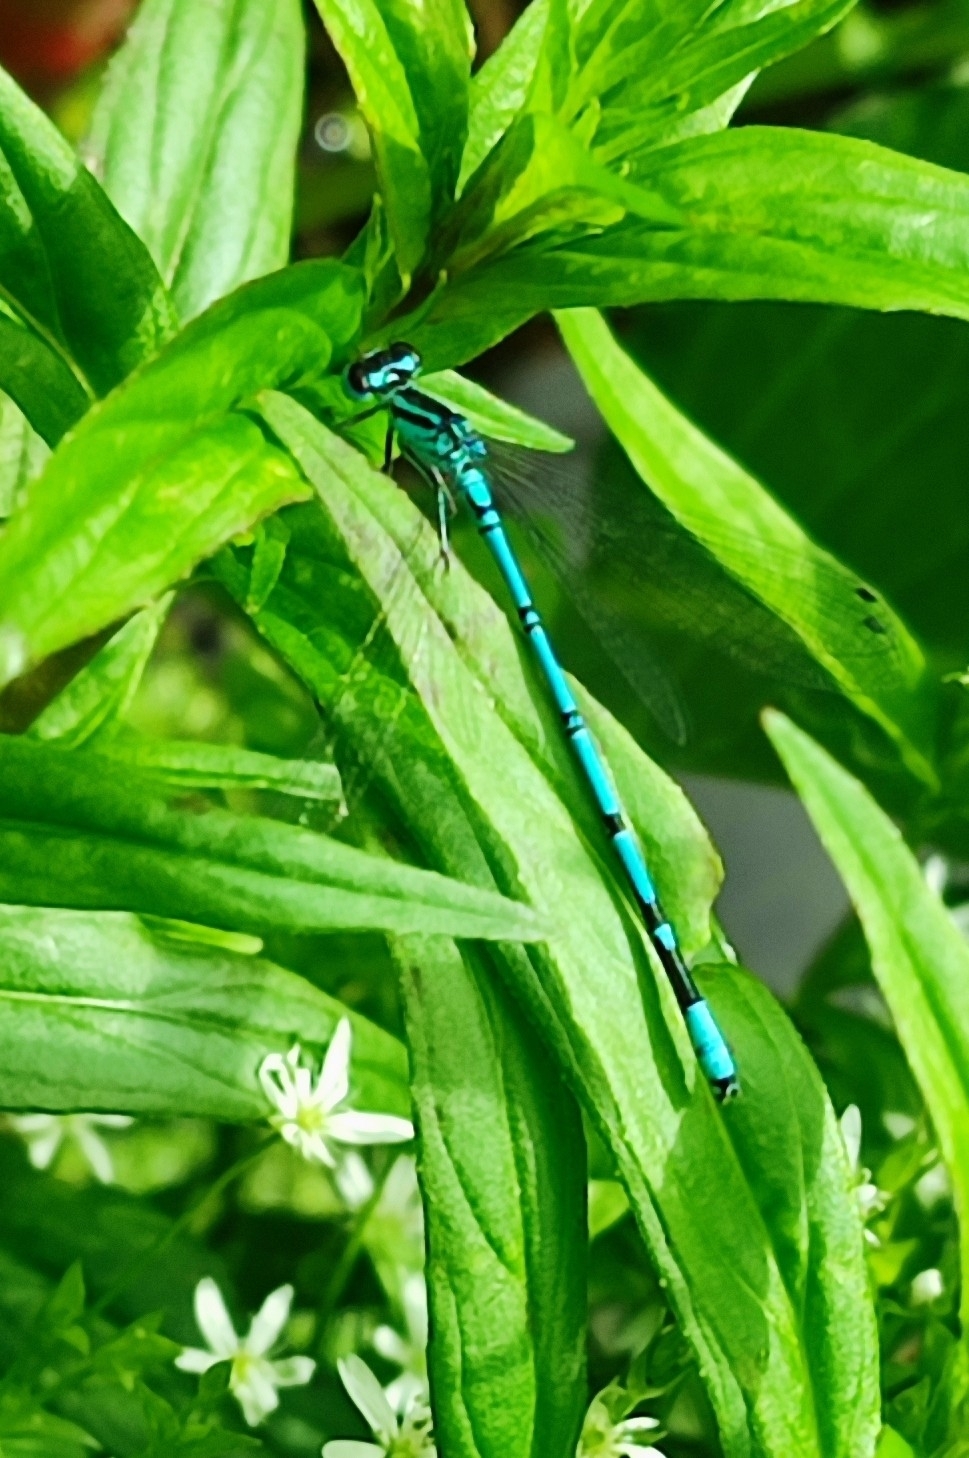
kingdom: Animalia
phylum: Arthropoda
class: Insecta
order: Odonata
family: Coenagrionidae
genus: Coenagrion
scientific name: Coenagrion puella
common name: Azure damselfly
